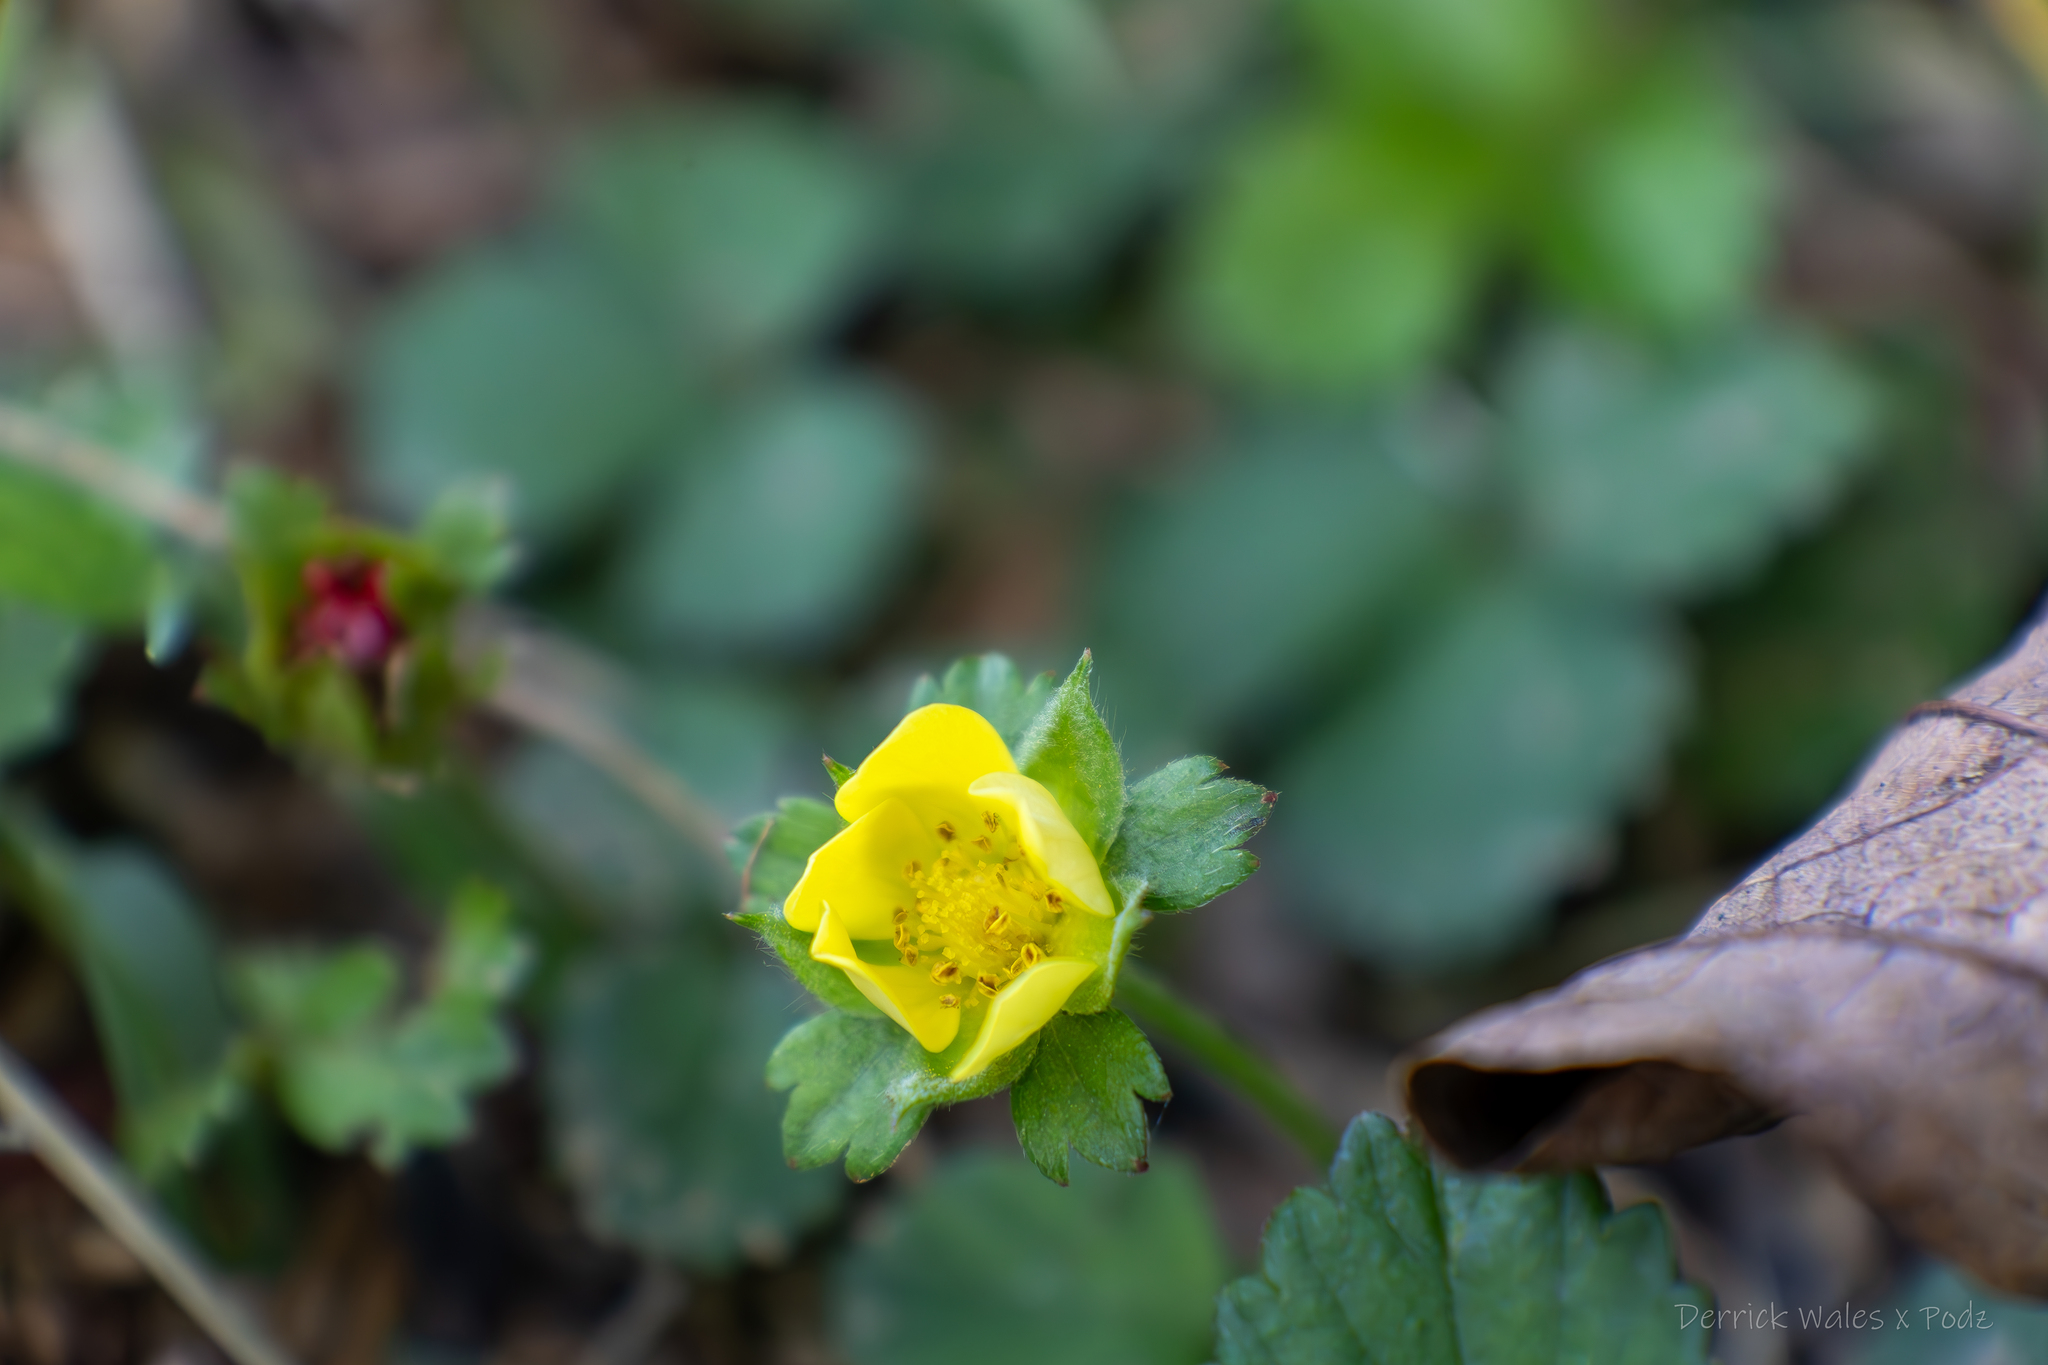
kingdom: Plantae
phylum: Tracheophyta
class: Magnoliopsida
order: Rosales
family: Rosaceae
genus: Potentilla
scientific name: Potentilla indica
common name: Yellow-flowered strawberry
